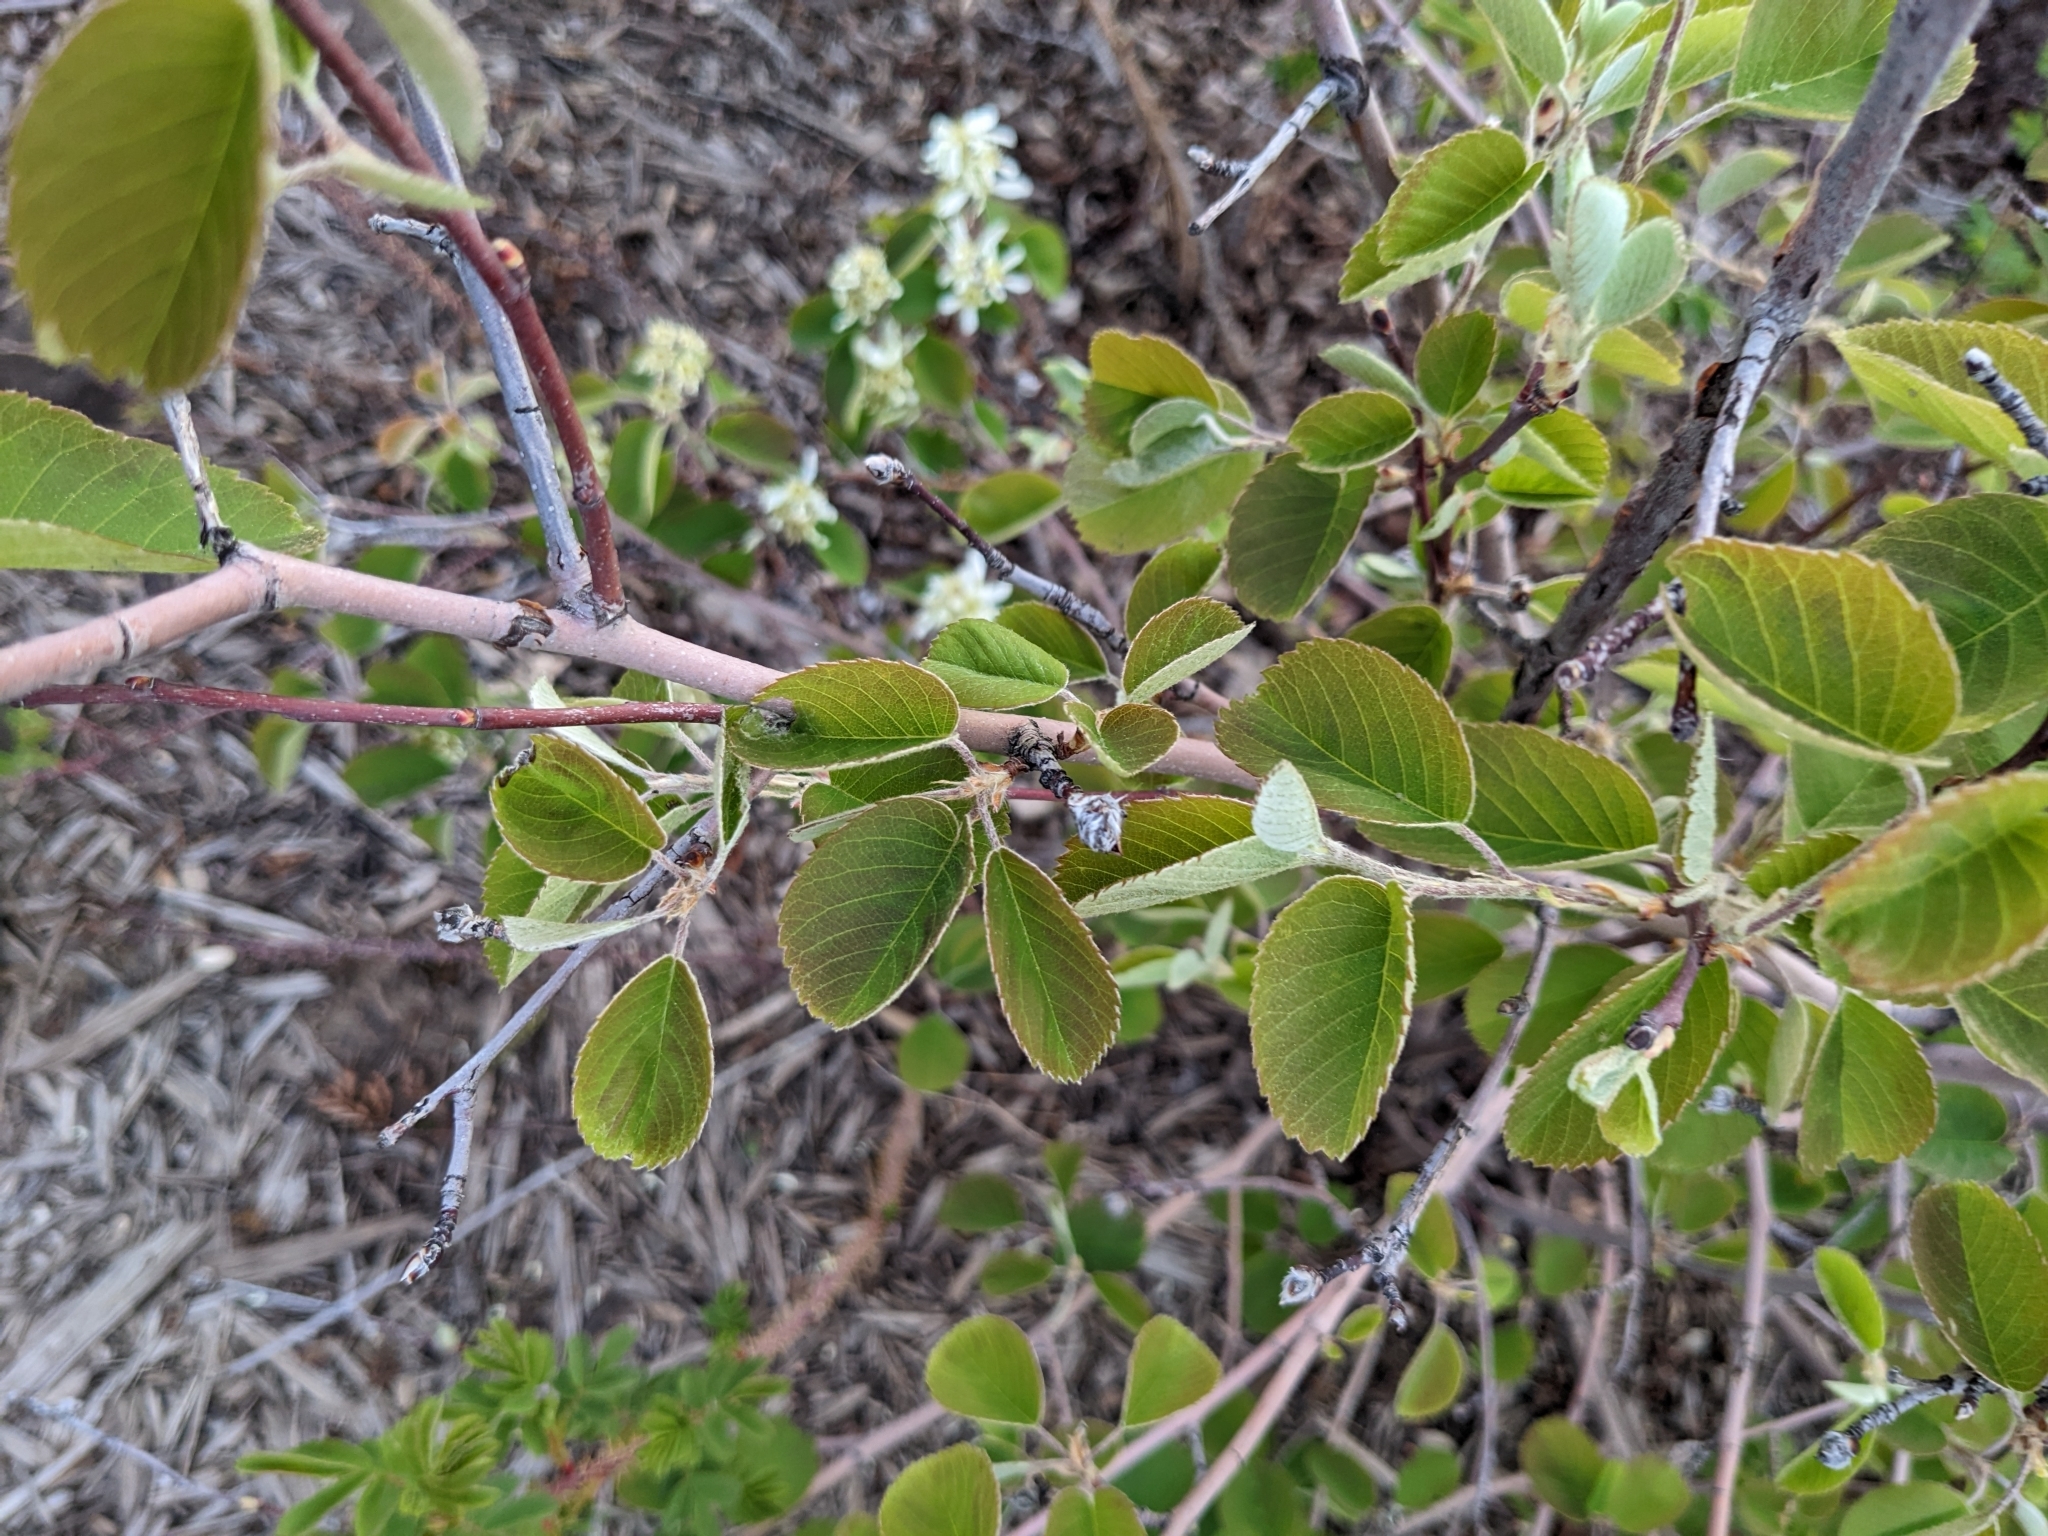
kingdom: Plantae
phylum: Tracheophyta
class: Magnoliopsida
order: Rosales
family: Rosaceae
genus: Amelanchier
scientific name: Amelanchier alnifolia
